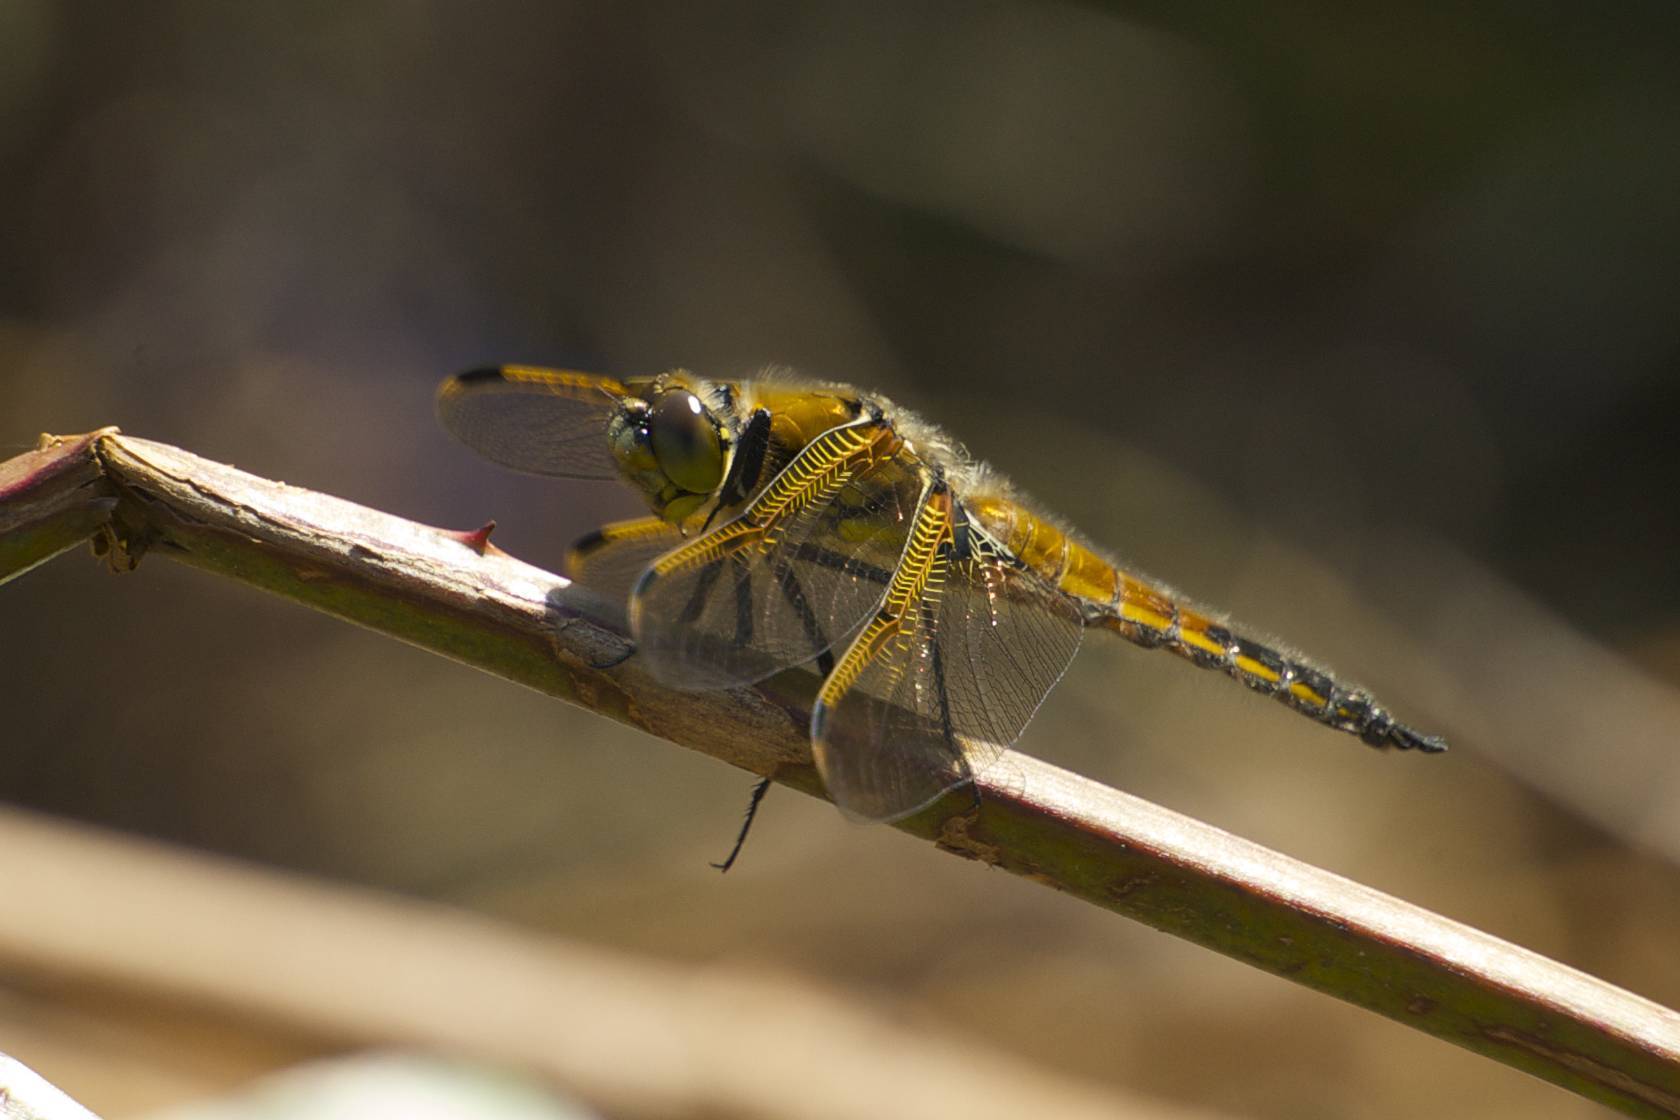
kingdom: Animalia
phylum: Arthropoda
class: Insecta
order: Odonata
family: Libellulidae
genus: Libellula
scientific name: Libellula quadrimaculata
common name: Four-spotted chaser
